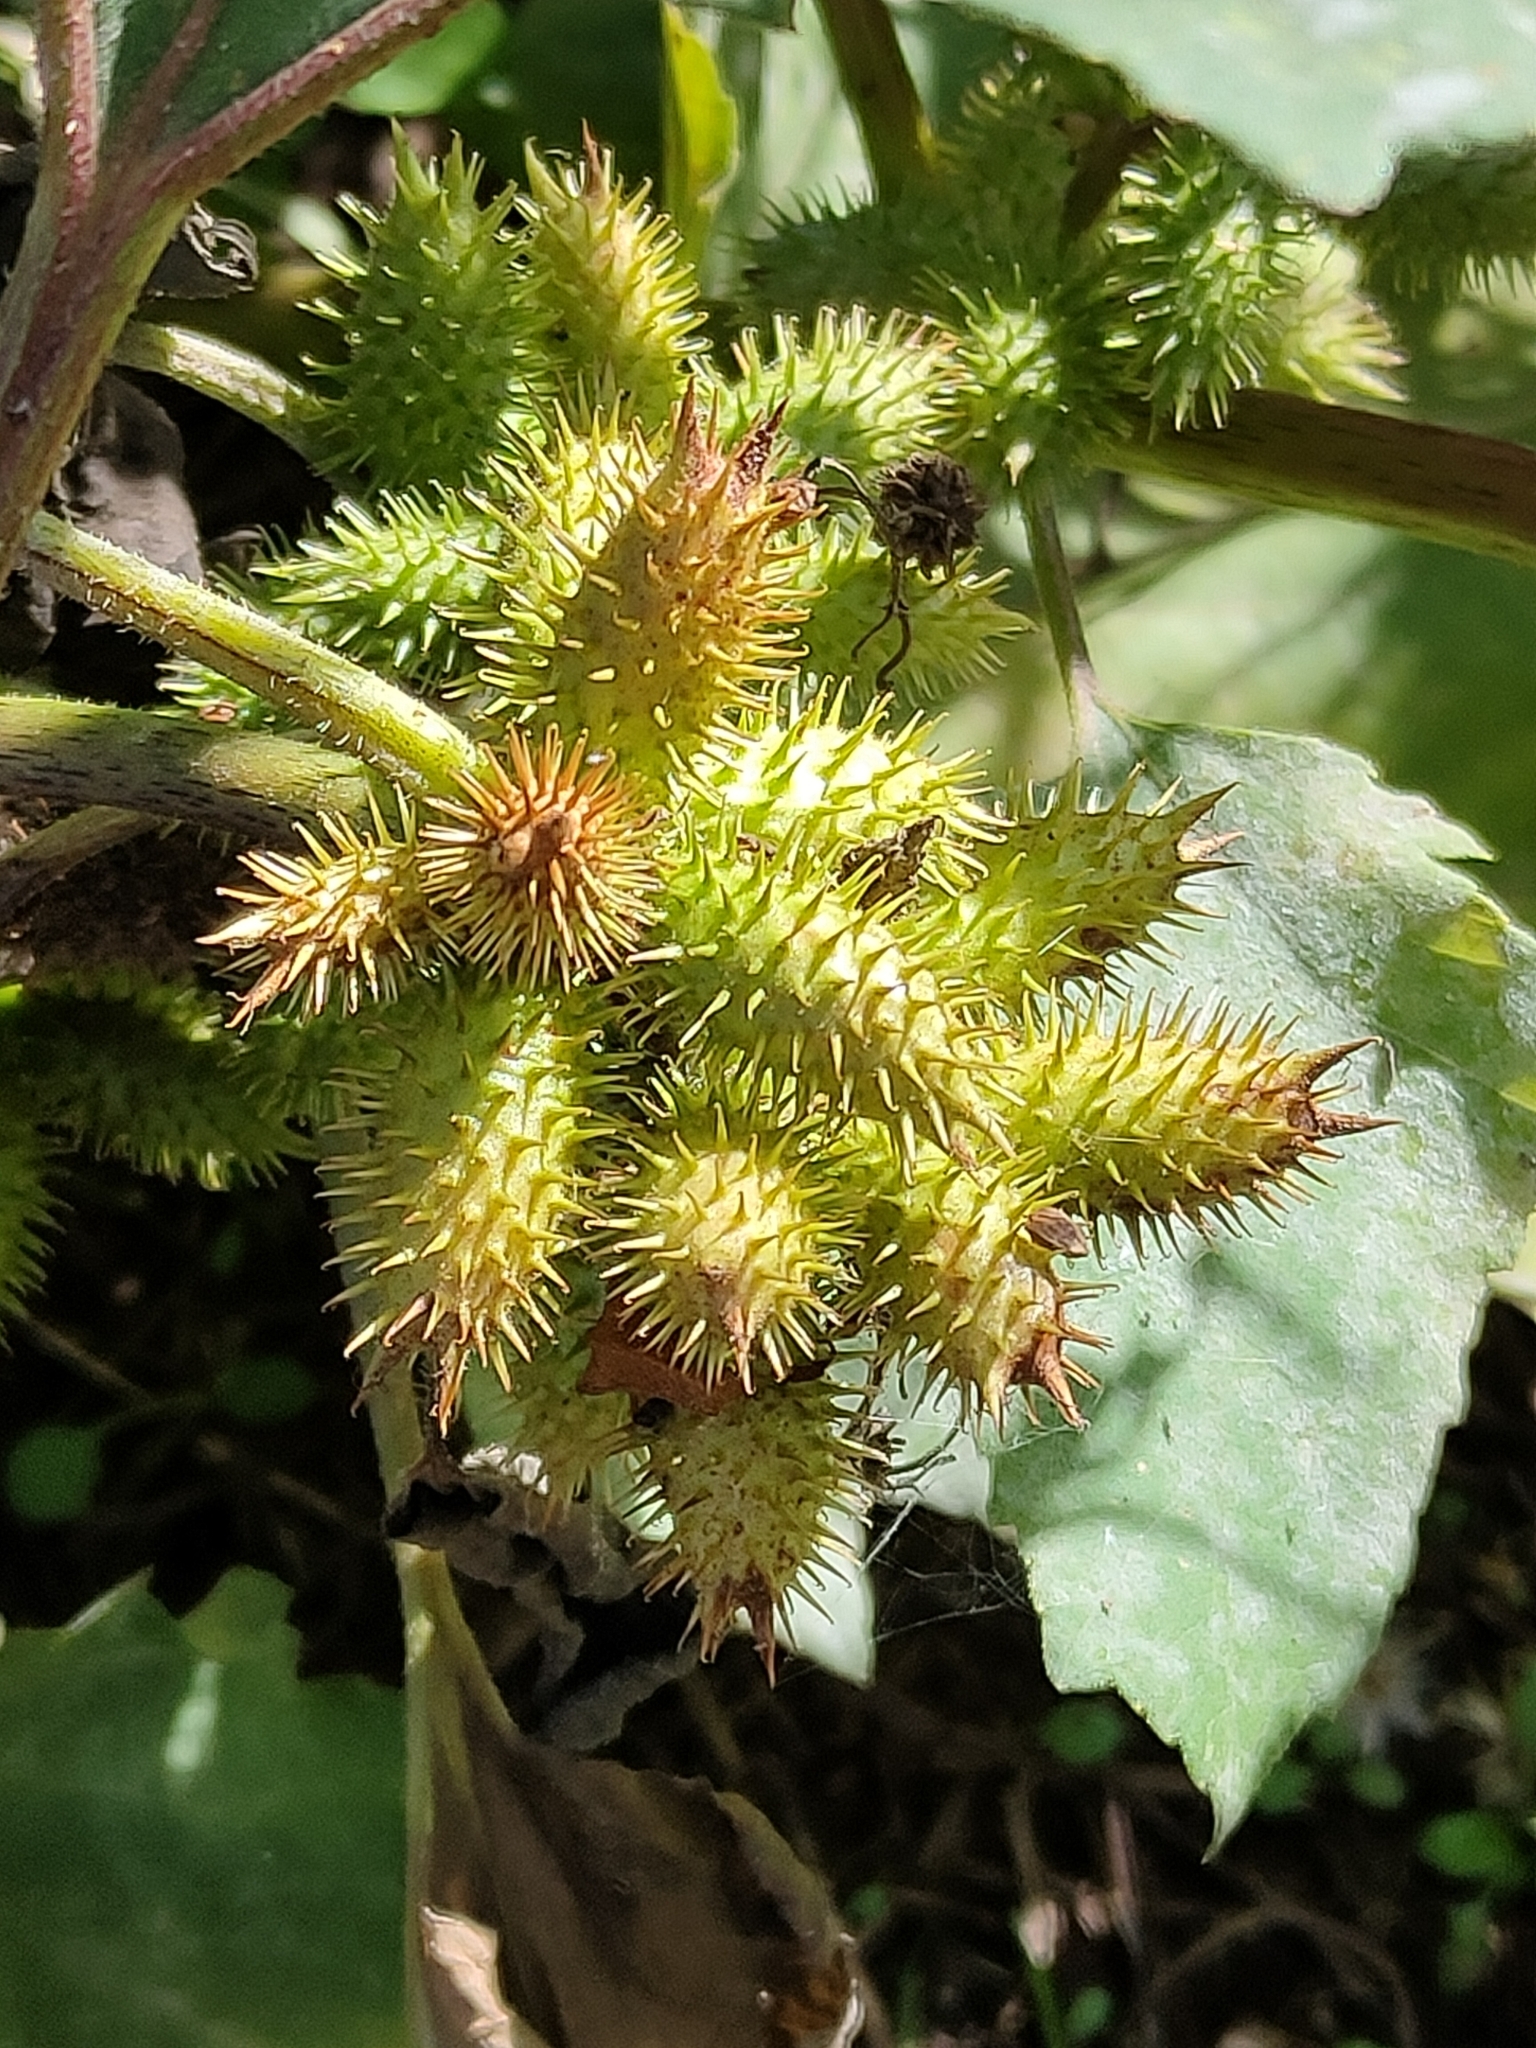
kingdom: Plantae
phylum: Tracheophyta
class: Magnoliopsida
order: Asterales
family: Asteraceae
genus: Xanthium
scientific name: Xanthium strumarium
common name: Rough cocklebur
